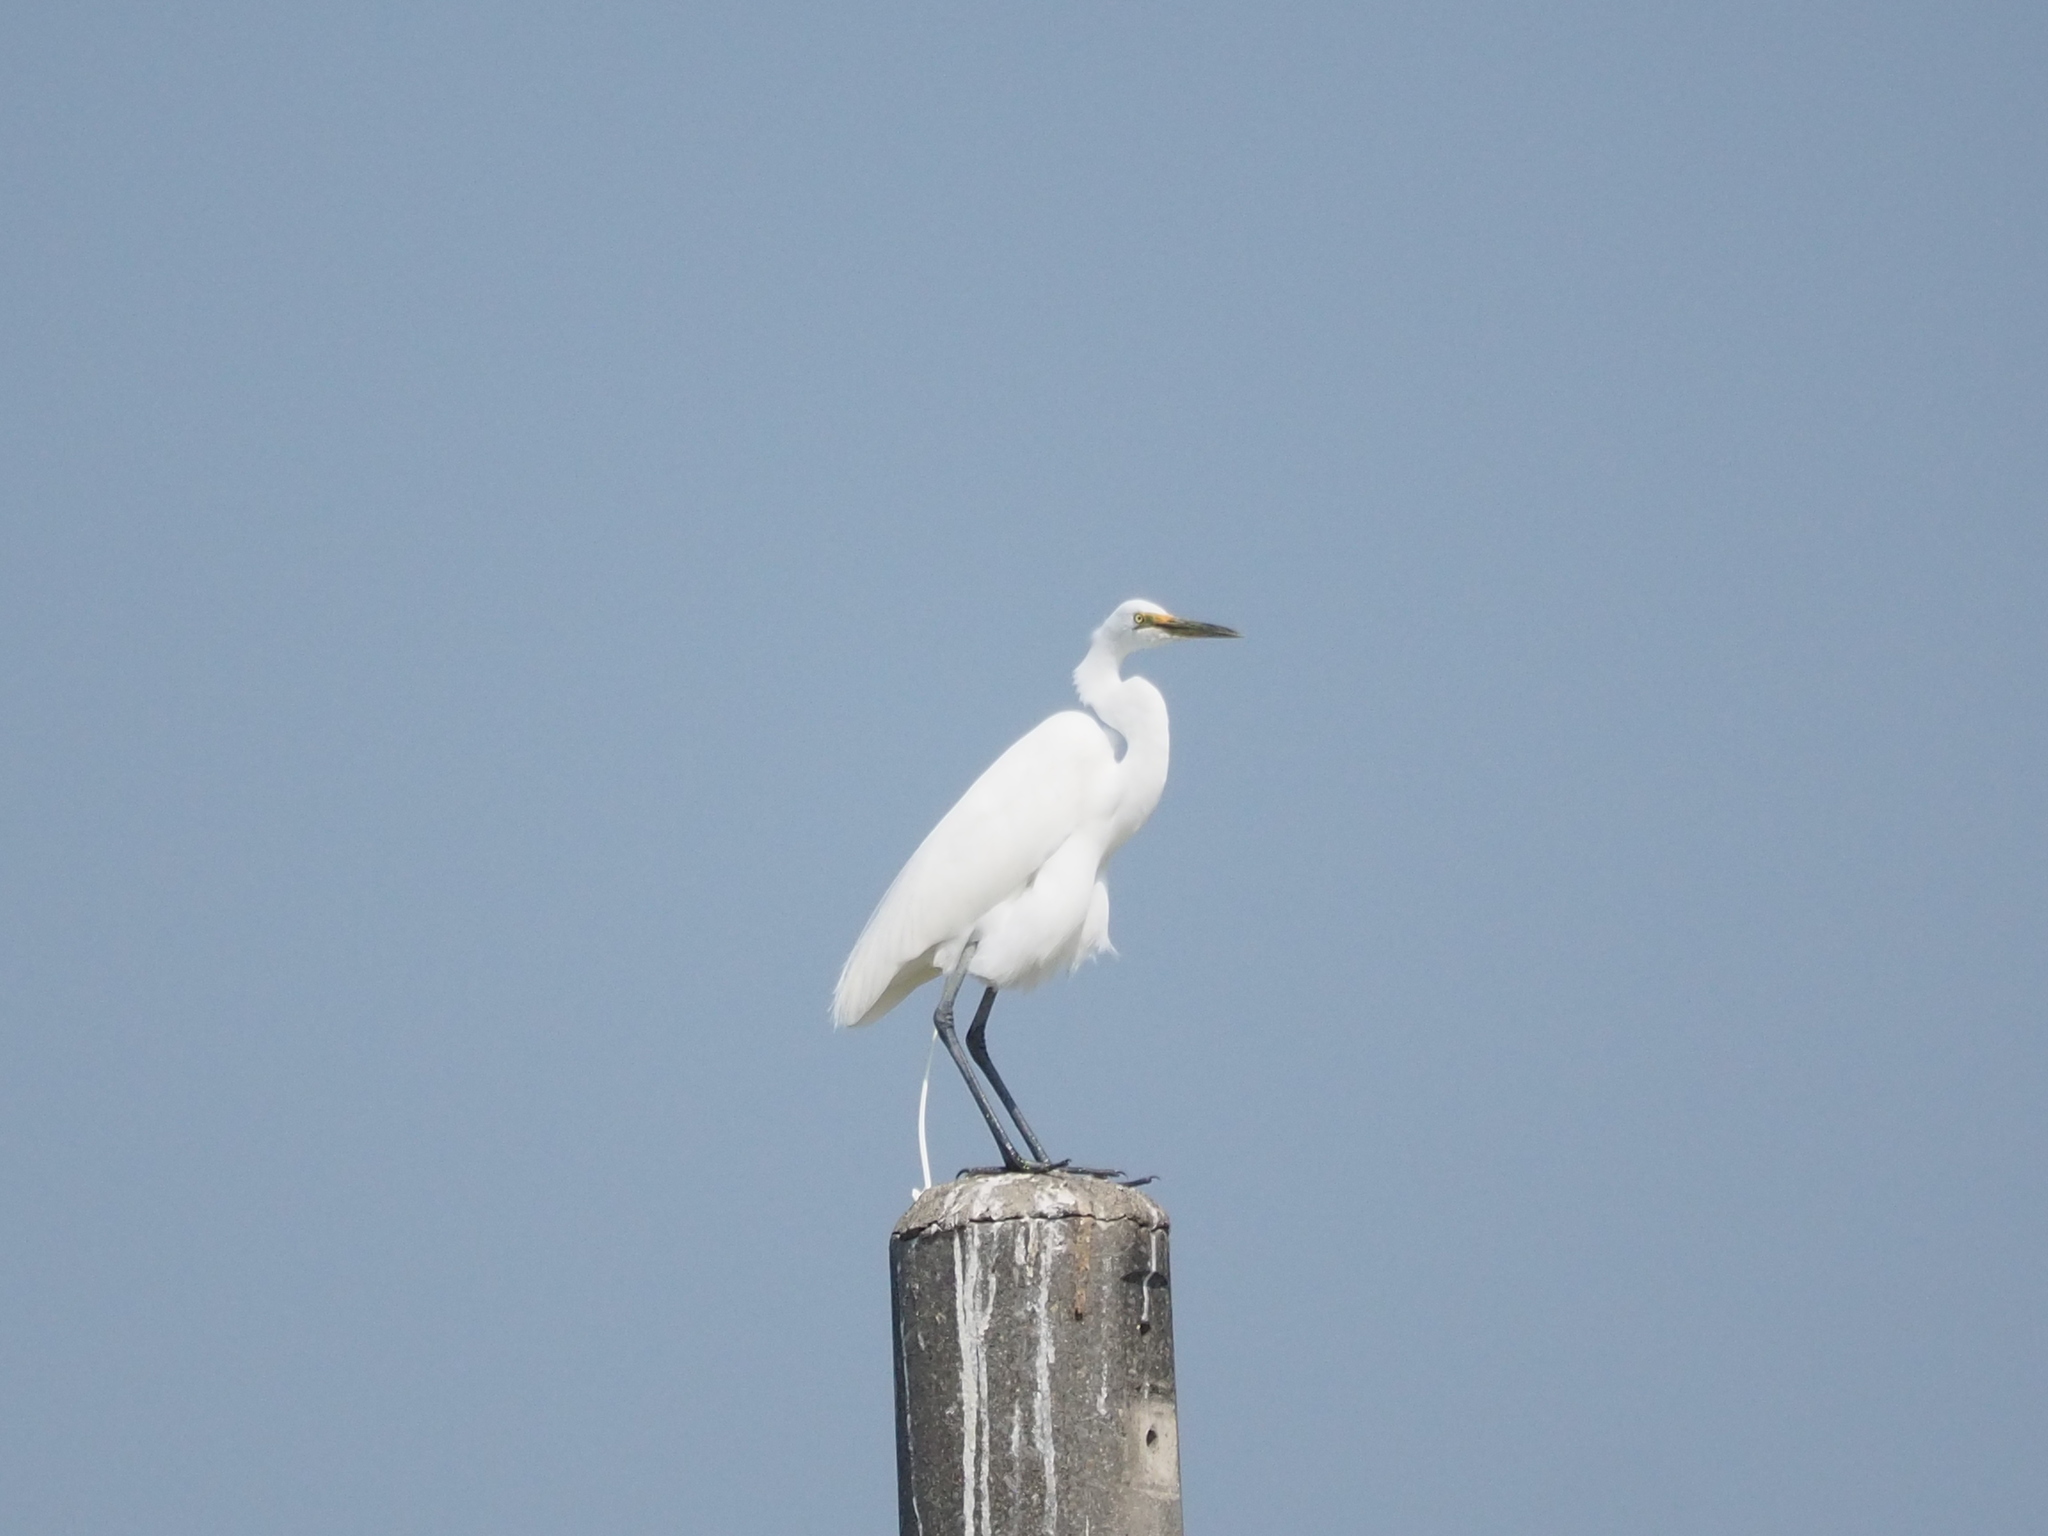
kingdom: Animalia
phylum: Chordata
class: Aves
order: Pelecaniformes
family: Ardeidae
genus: Ardea
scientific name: Ardea alba
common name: Great egret
